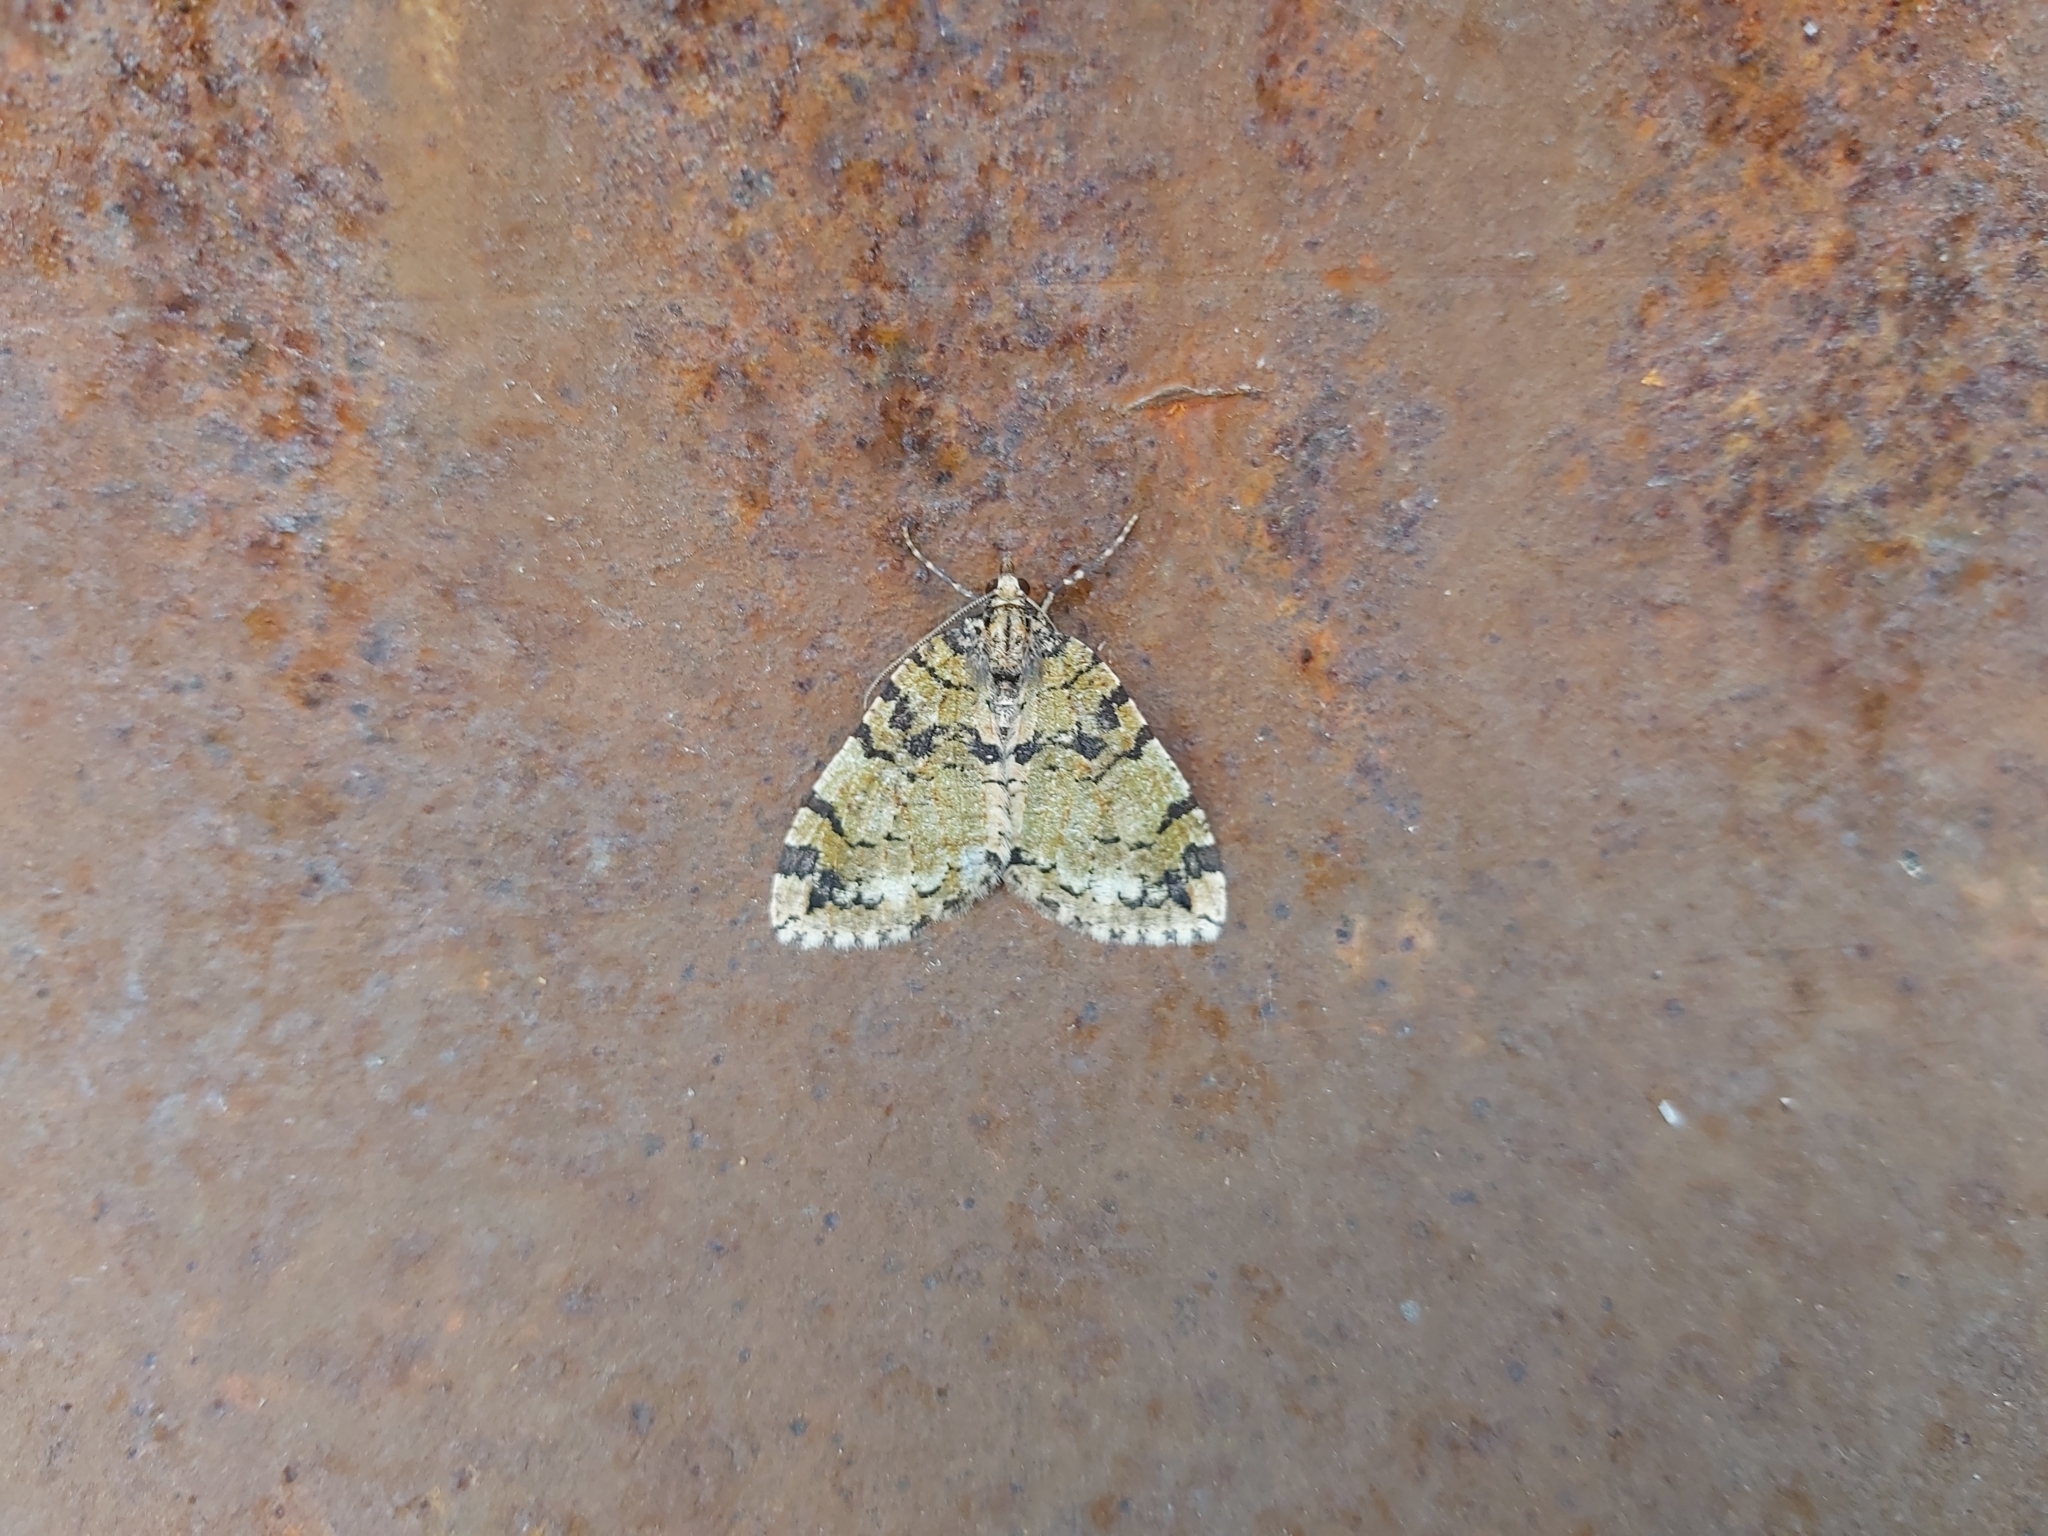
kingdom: Animalia
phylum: Arthropoda
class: Insecta
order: Lepidoptera
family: Geometridae
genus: Hydriomena
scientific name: Hydriomena furcata
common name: July highflyer
